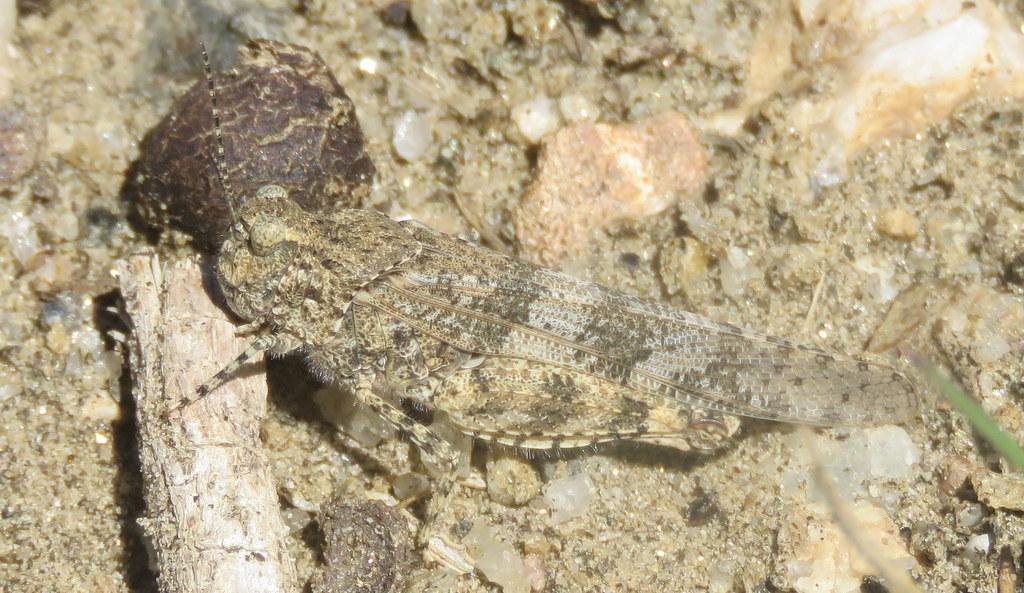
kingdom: Animalia
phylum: Arthropoda
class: Insecta
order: Orthoptera
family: Acrididae
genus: Trimerotropis
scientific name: Trimerotropis pallidipennis
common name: Pallid-winged grasshopper
